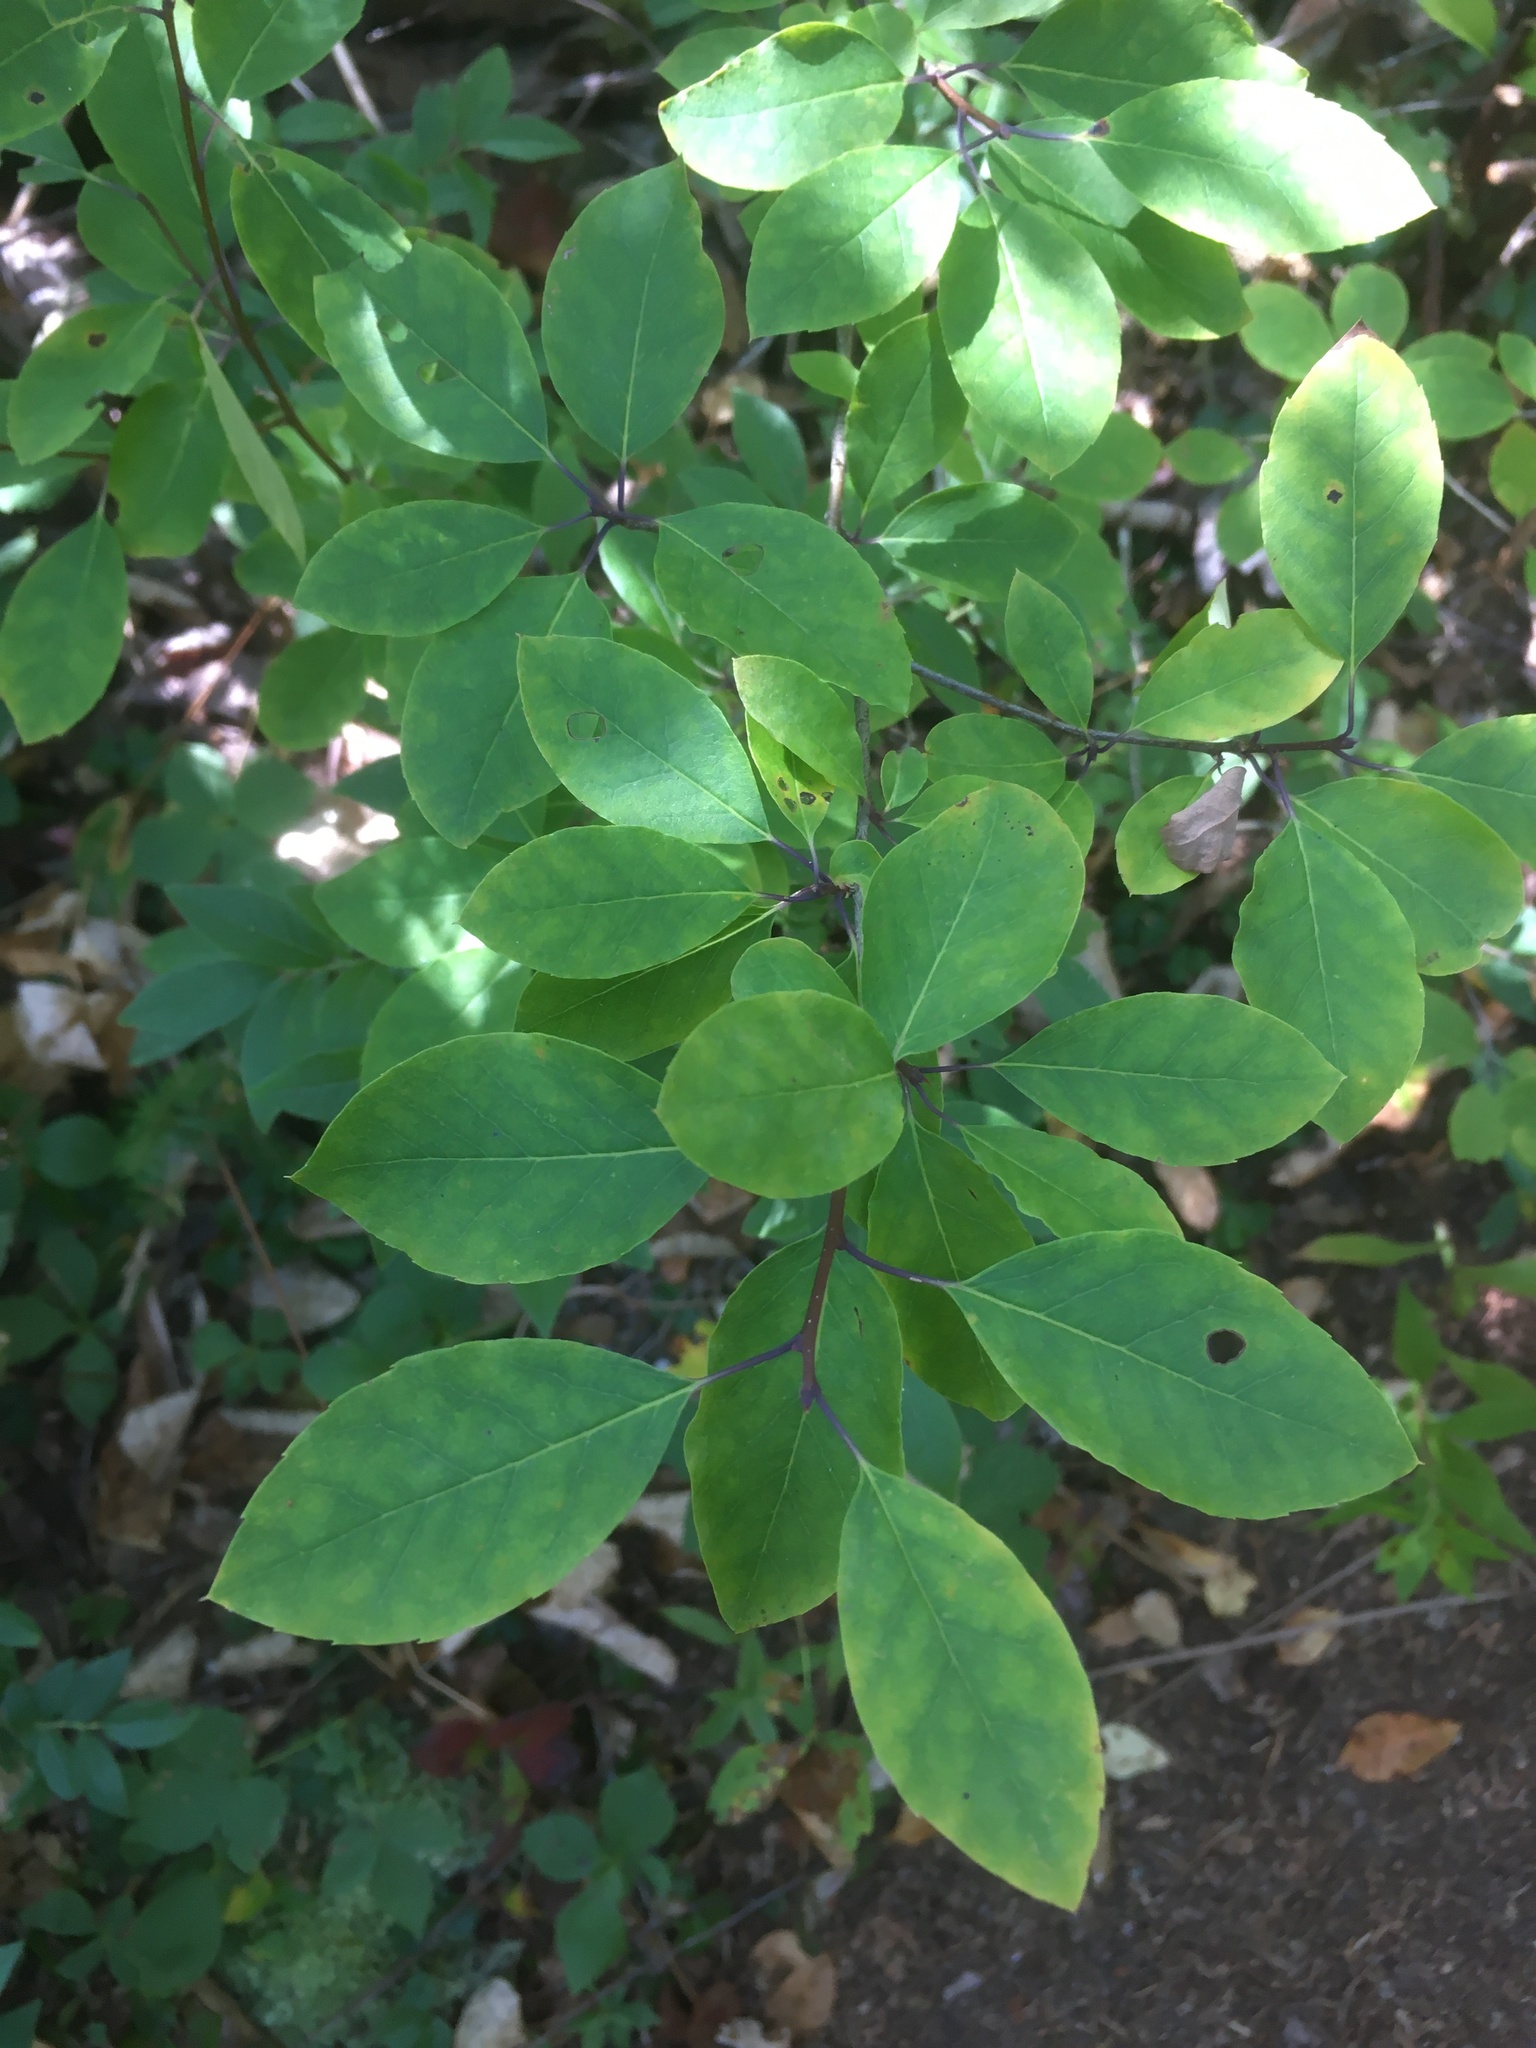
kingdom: Plantae
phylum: Tracheophyta
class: Magnoliopsida
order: Aquifoliales
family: Aquifoliaceae
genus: Ilex
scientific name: Ilex mucronata
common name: Catberry
